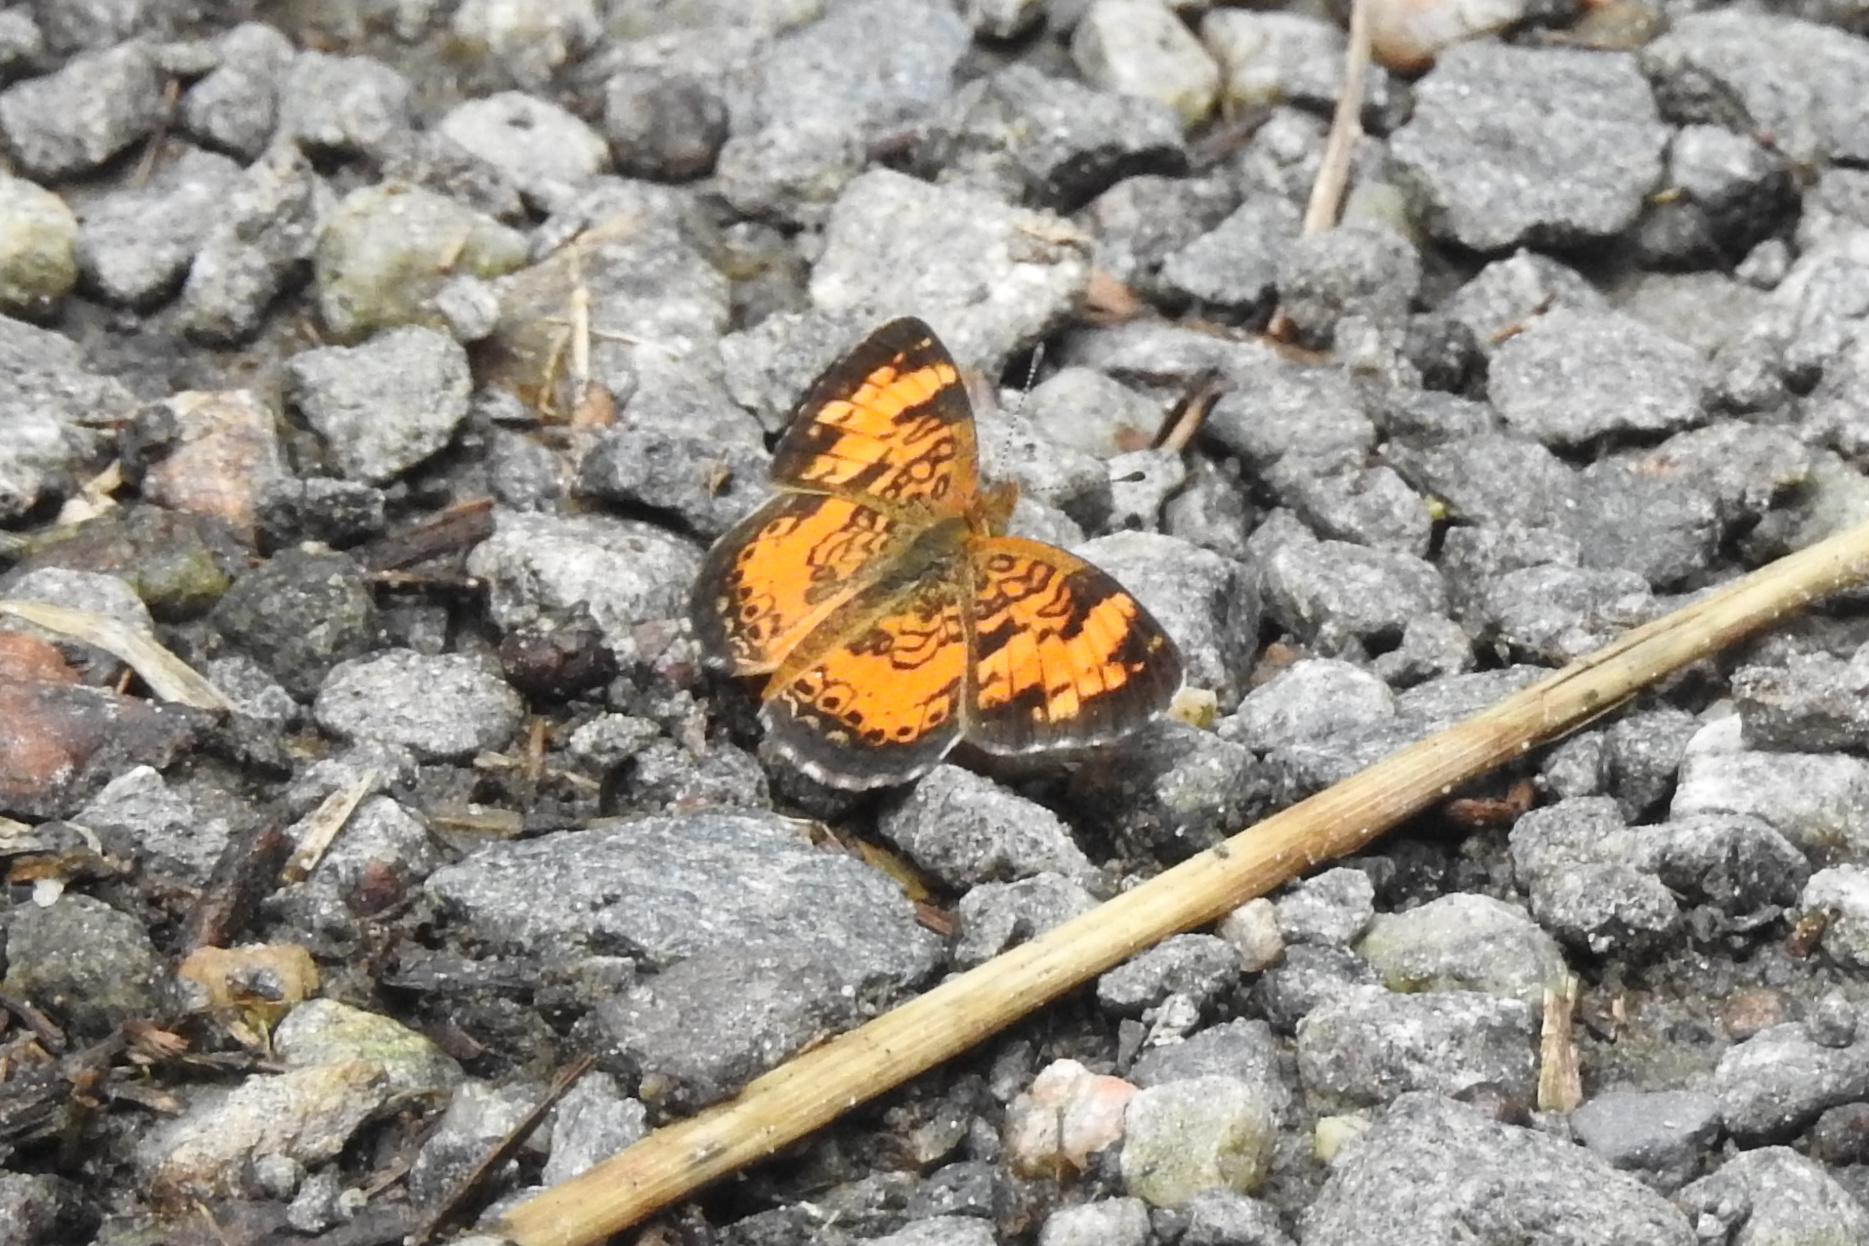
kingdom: Animalia
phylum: Arthropoda
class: Insecta
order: Lepidoptera
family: Nymphalidae
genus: Phyciodes
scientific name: Phyciodes tharos
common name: Pearl crescent
